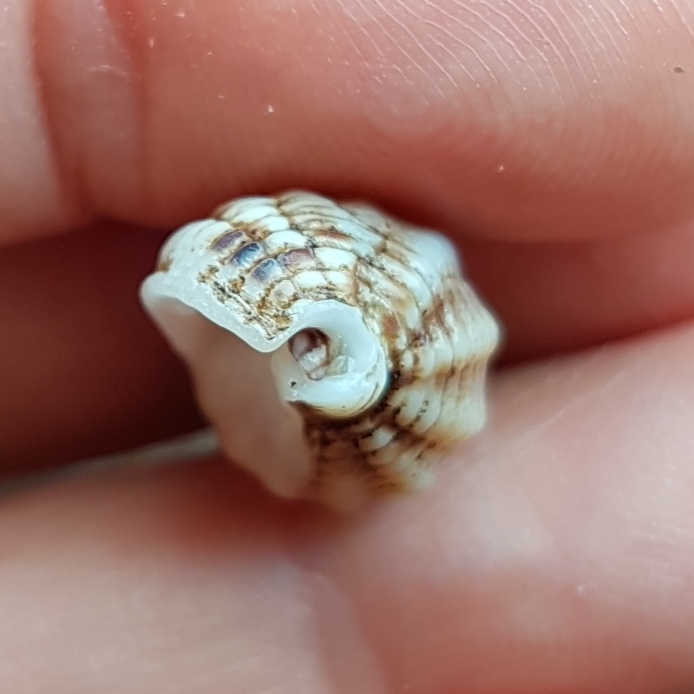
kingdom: Animalia
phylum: Mollusca
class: Gastropoda
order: Neogastropoda
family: Nassariidae
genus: Tritia
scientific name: Tritia reticulata
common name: Netted dog whelk
